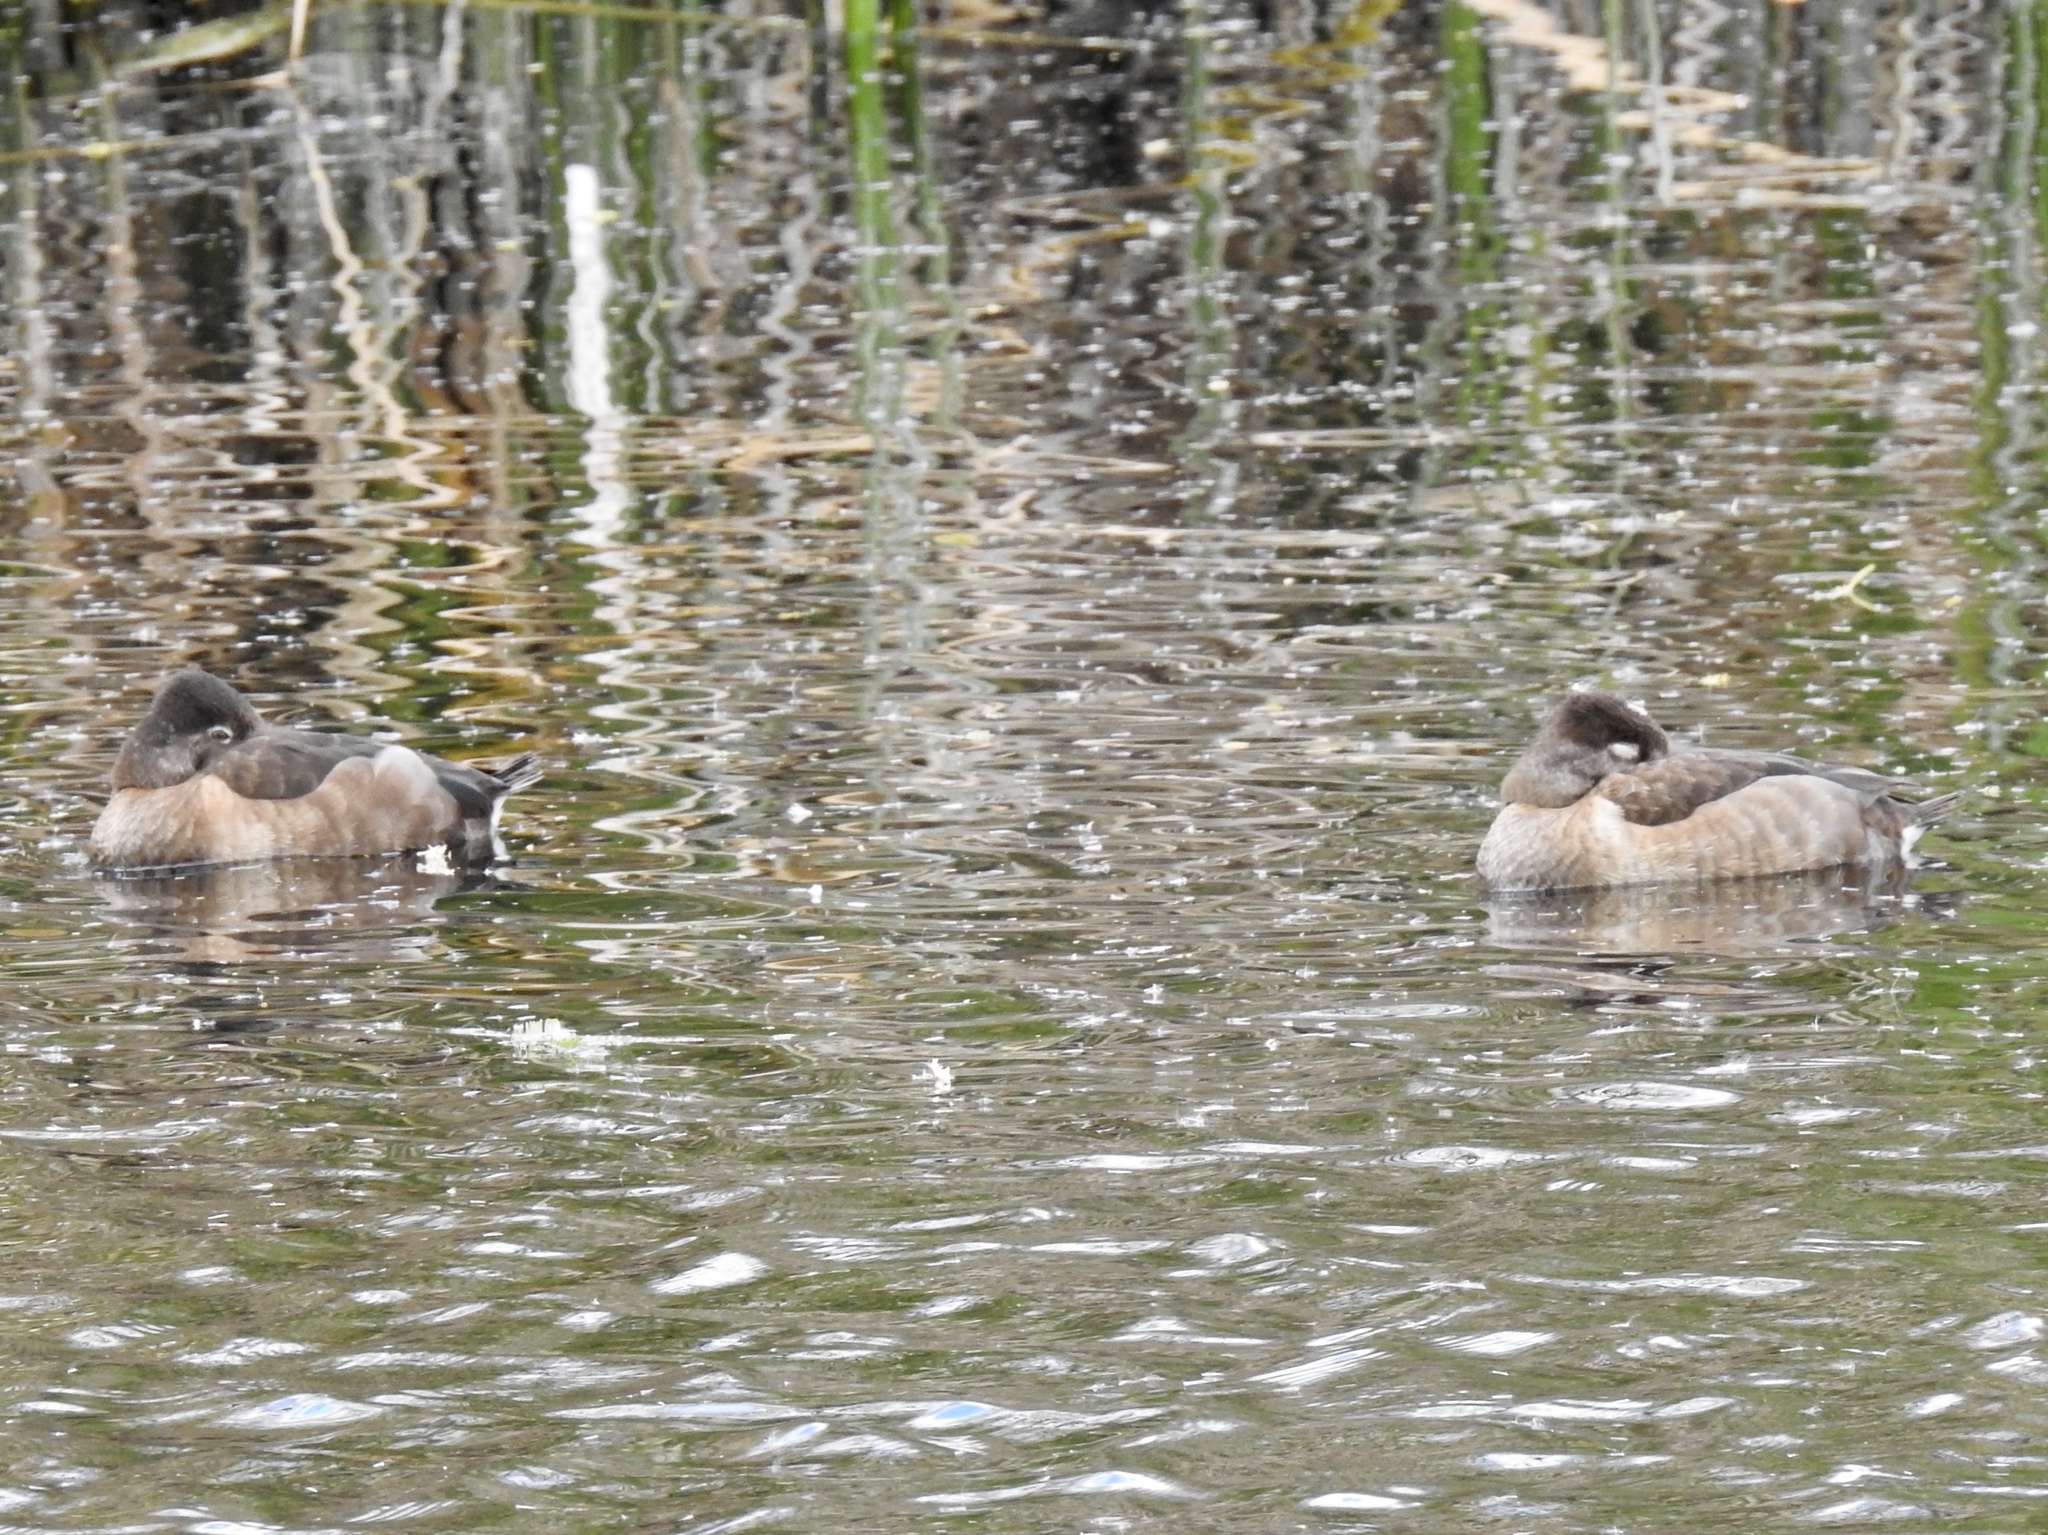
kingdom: Animalia
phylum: Chordata
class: Aves
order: Anseriformes
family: Anatidae
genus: Aythya
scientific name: Aythya collaris
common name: Ring-necked duck
